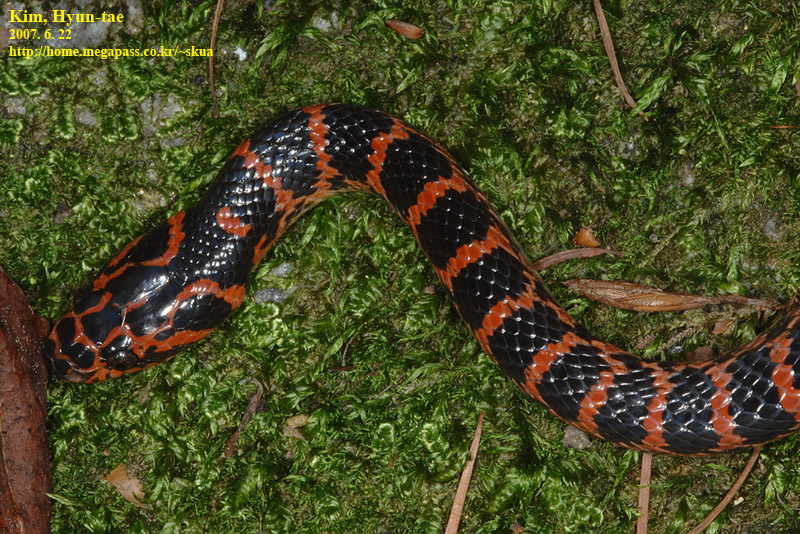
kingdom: Animalia
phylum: Chordata
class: Squamata
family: Colubridae
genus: Lycodon
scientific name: Lycodon rufozonatus
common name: Red-banded snake
